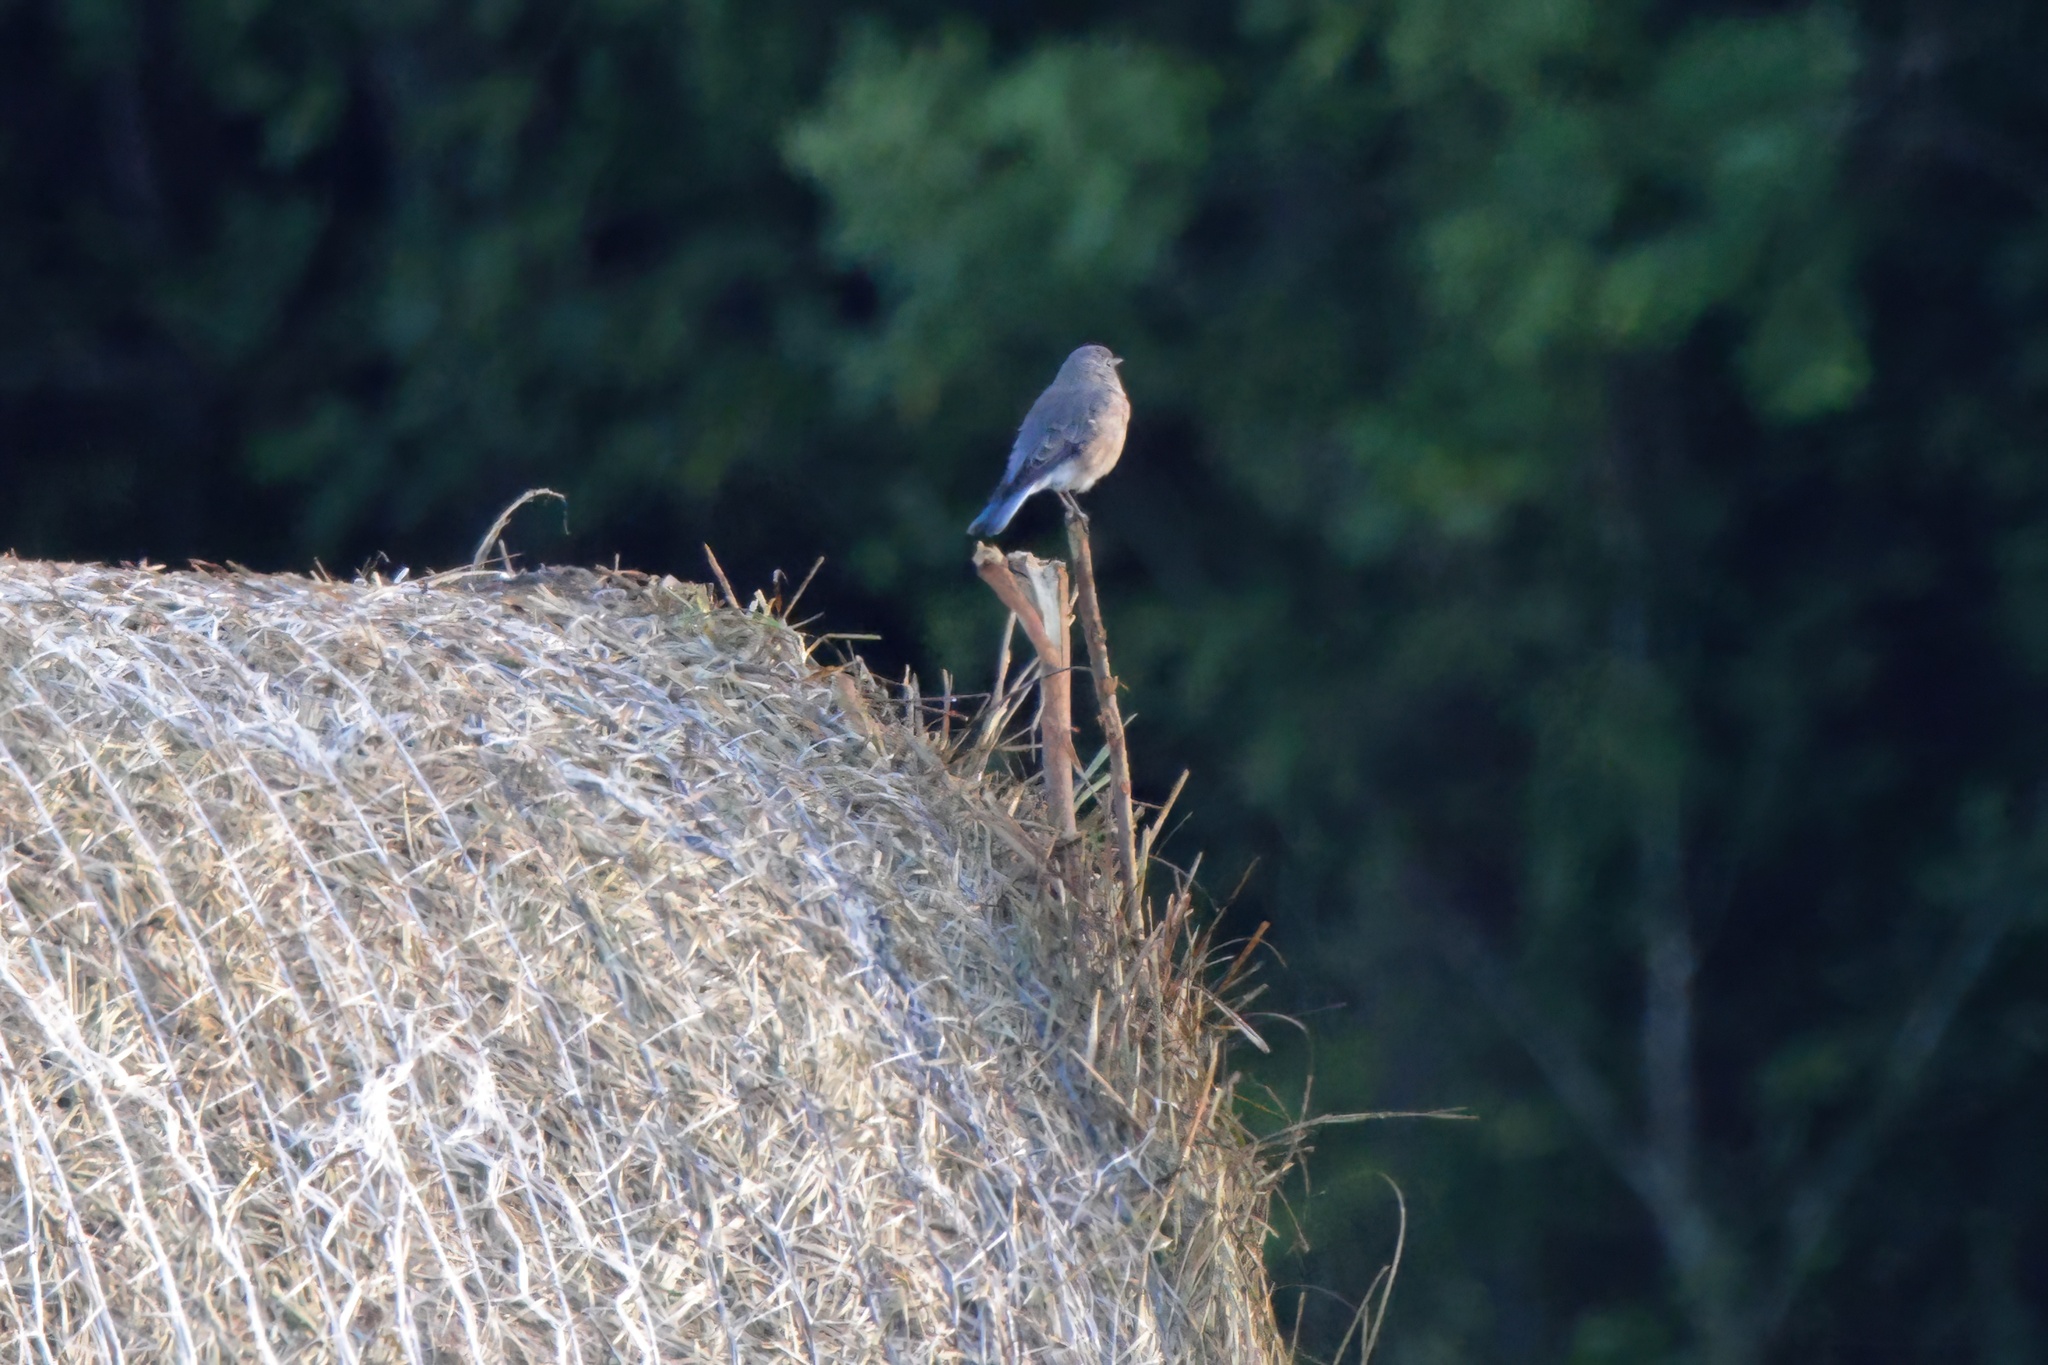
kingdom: Animalia
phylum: Chordata
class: Aves
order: Passeriformes
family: Turdidae
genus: Sialia
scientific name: Sialia sialis
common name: Eastern bluebird
